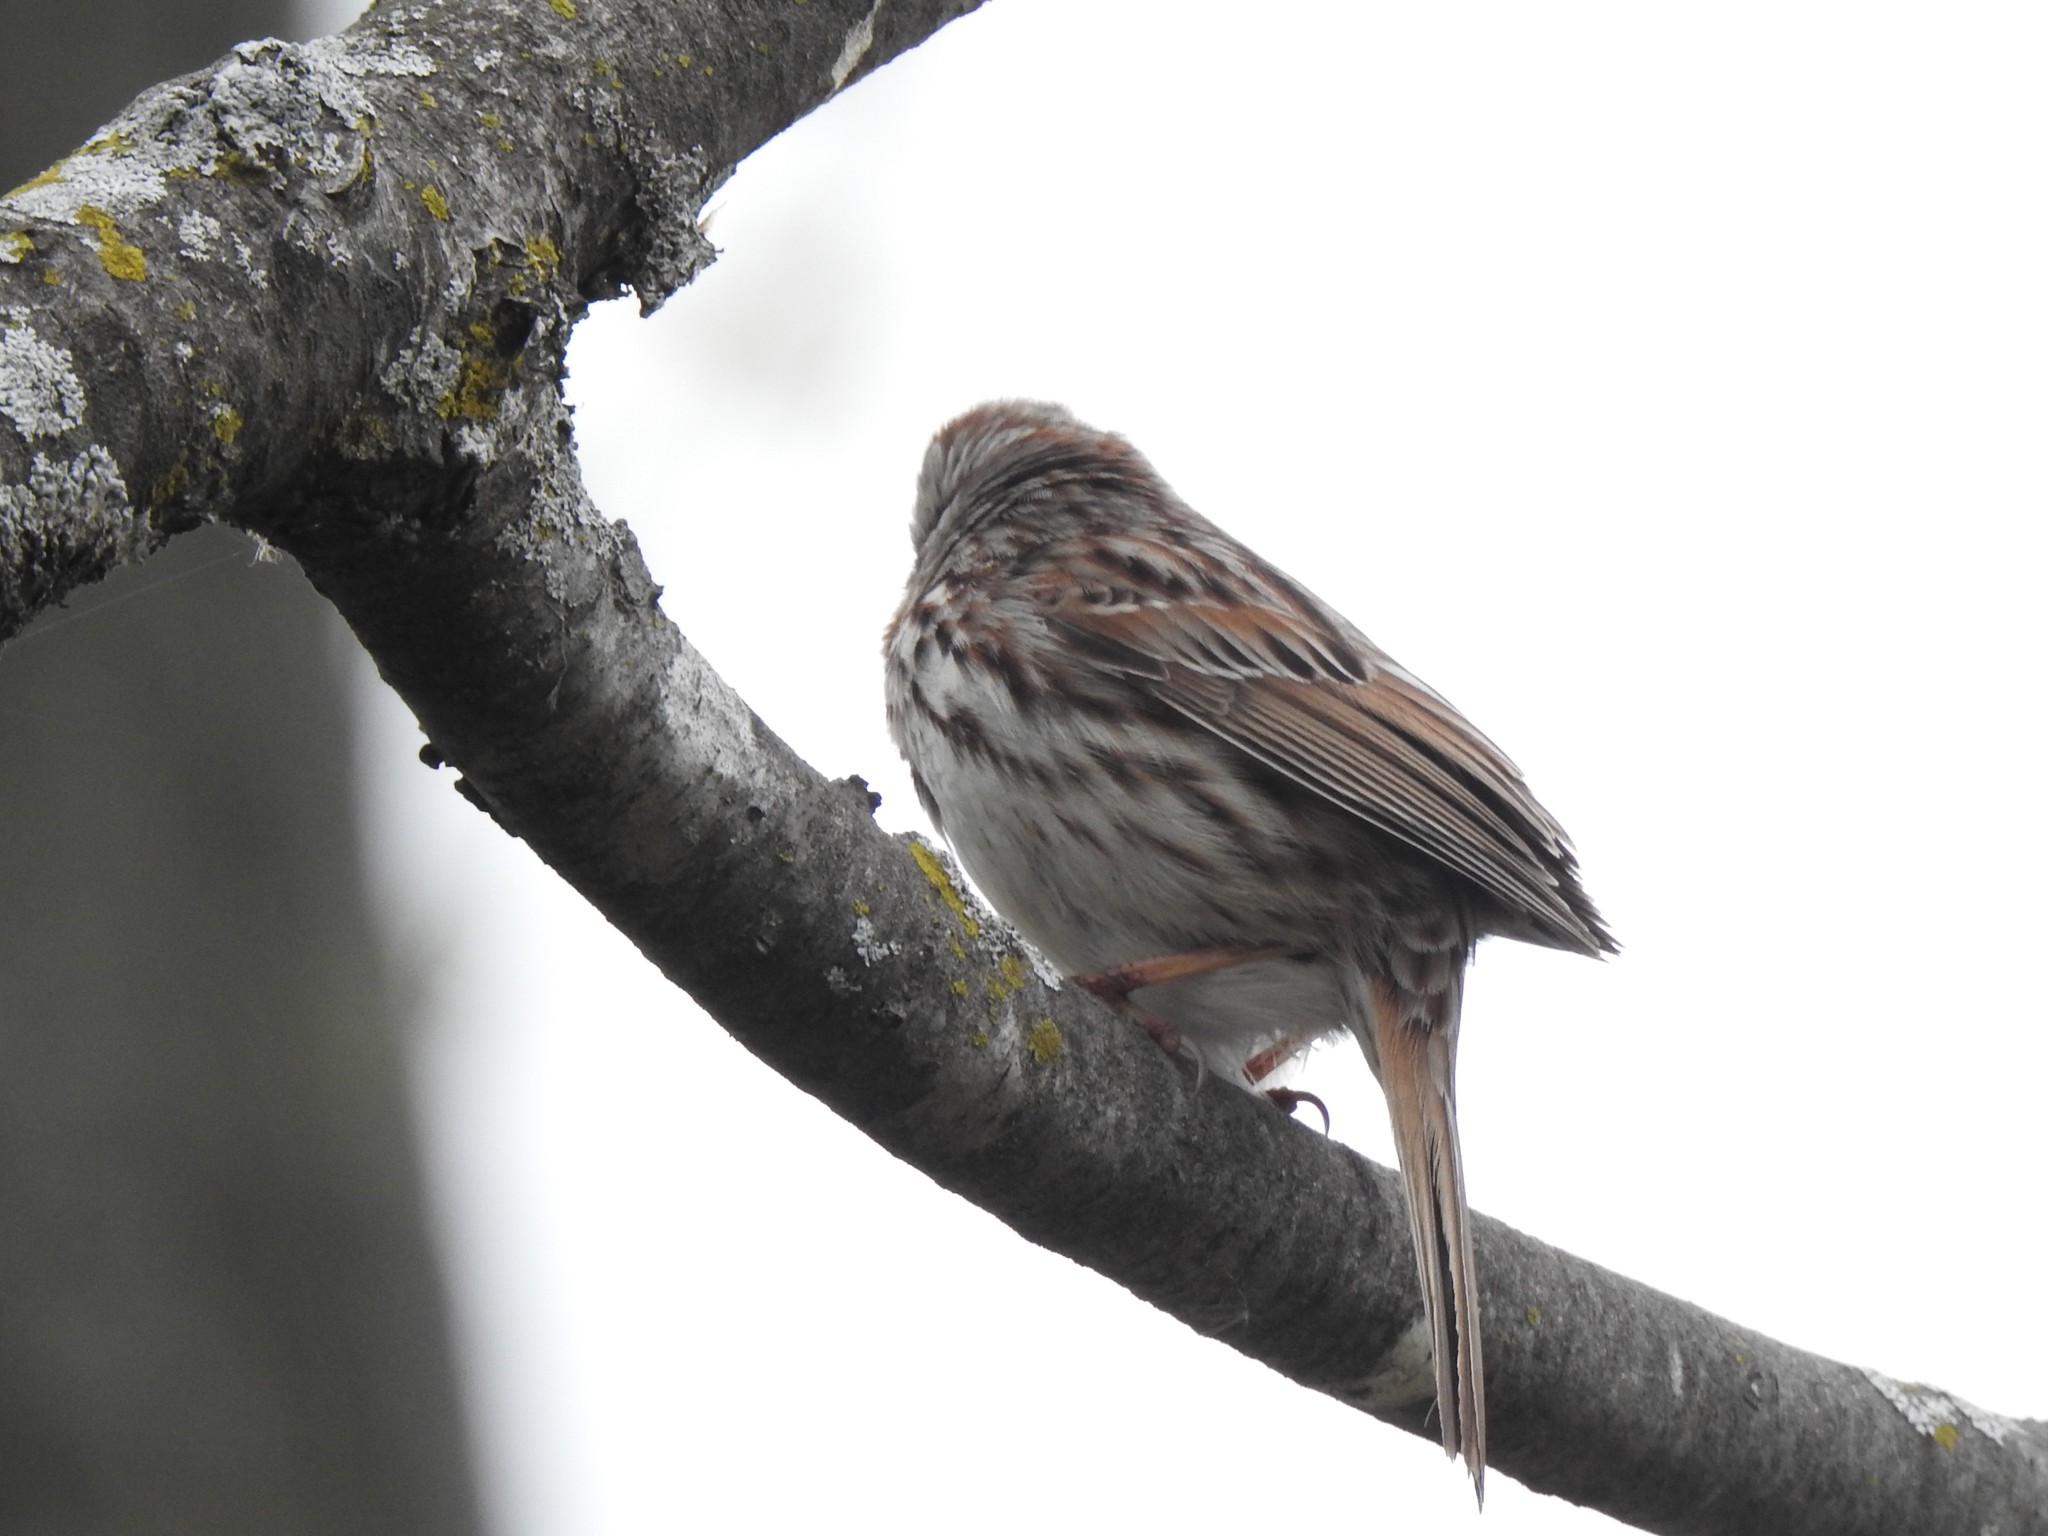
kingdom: Animalia
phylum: Chordata
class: Aves
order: Passeriformes
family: Passerellidae
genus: Melospiza
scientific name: Melospiza melodia
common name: Song sparrow
